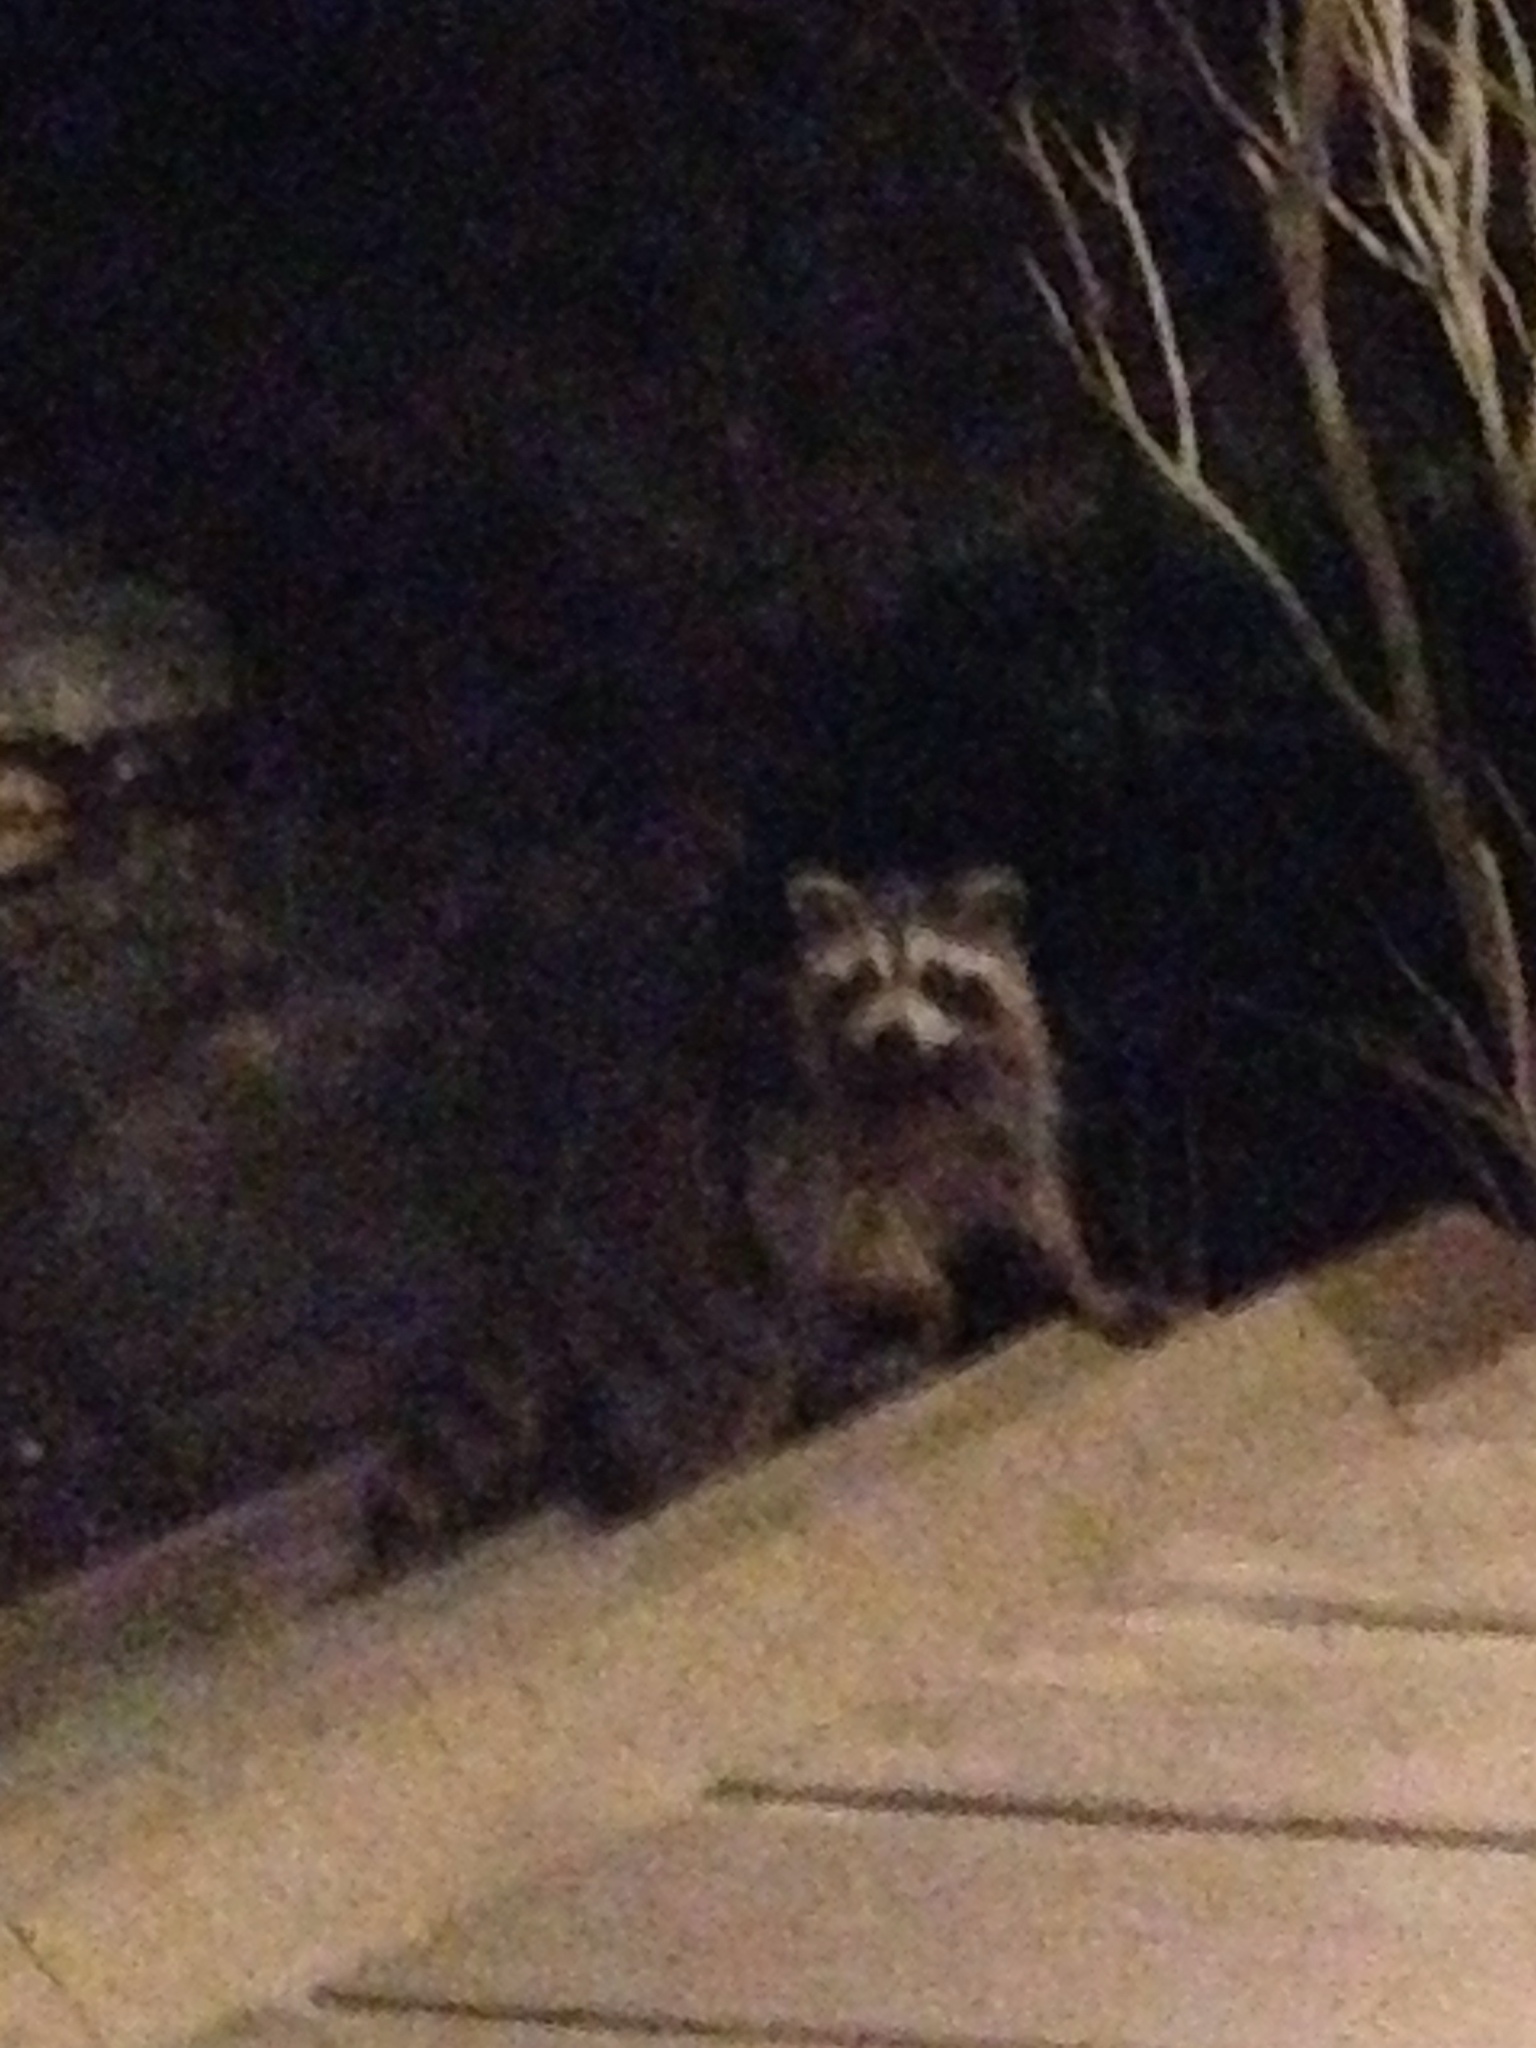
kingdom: Animalia
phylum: Chordata
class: Mammalia
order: Carnivora
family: Procyonidae
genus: Procyon
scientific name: Procyon lotor
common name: Raccoon
